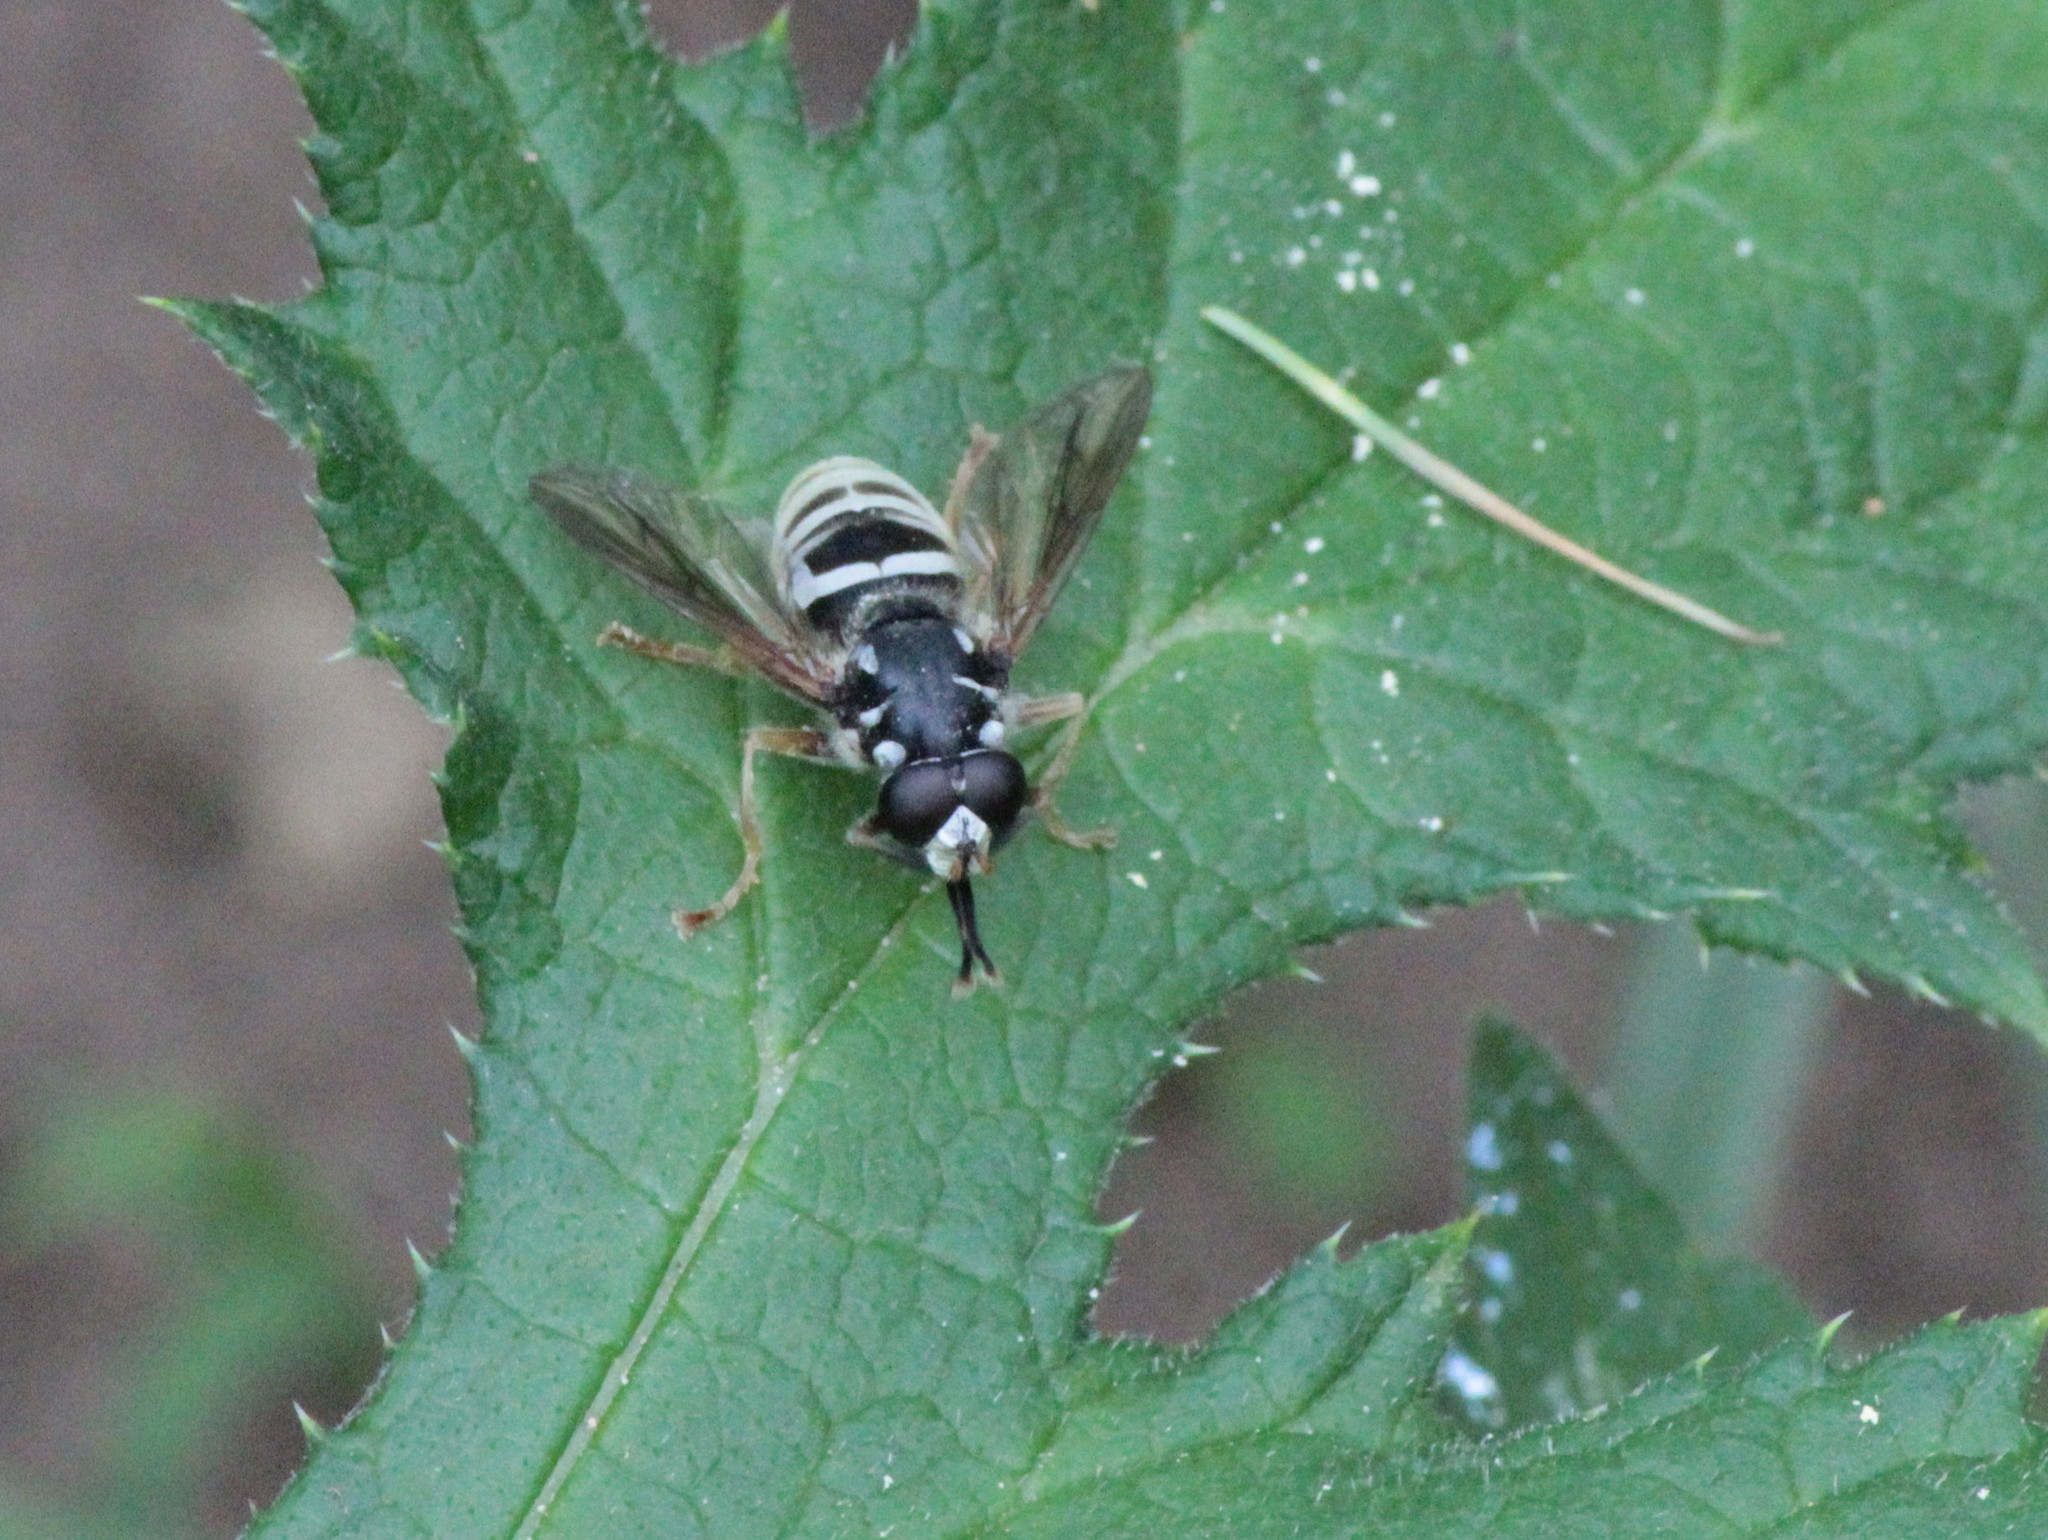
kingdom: Animalia
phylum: Arthropoda
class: Insecta
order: Diptera
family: Syrphidae
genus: Temnostoma
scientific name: Temnostoma excentricum
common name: Black-spotted falsehorn
